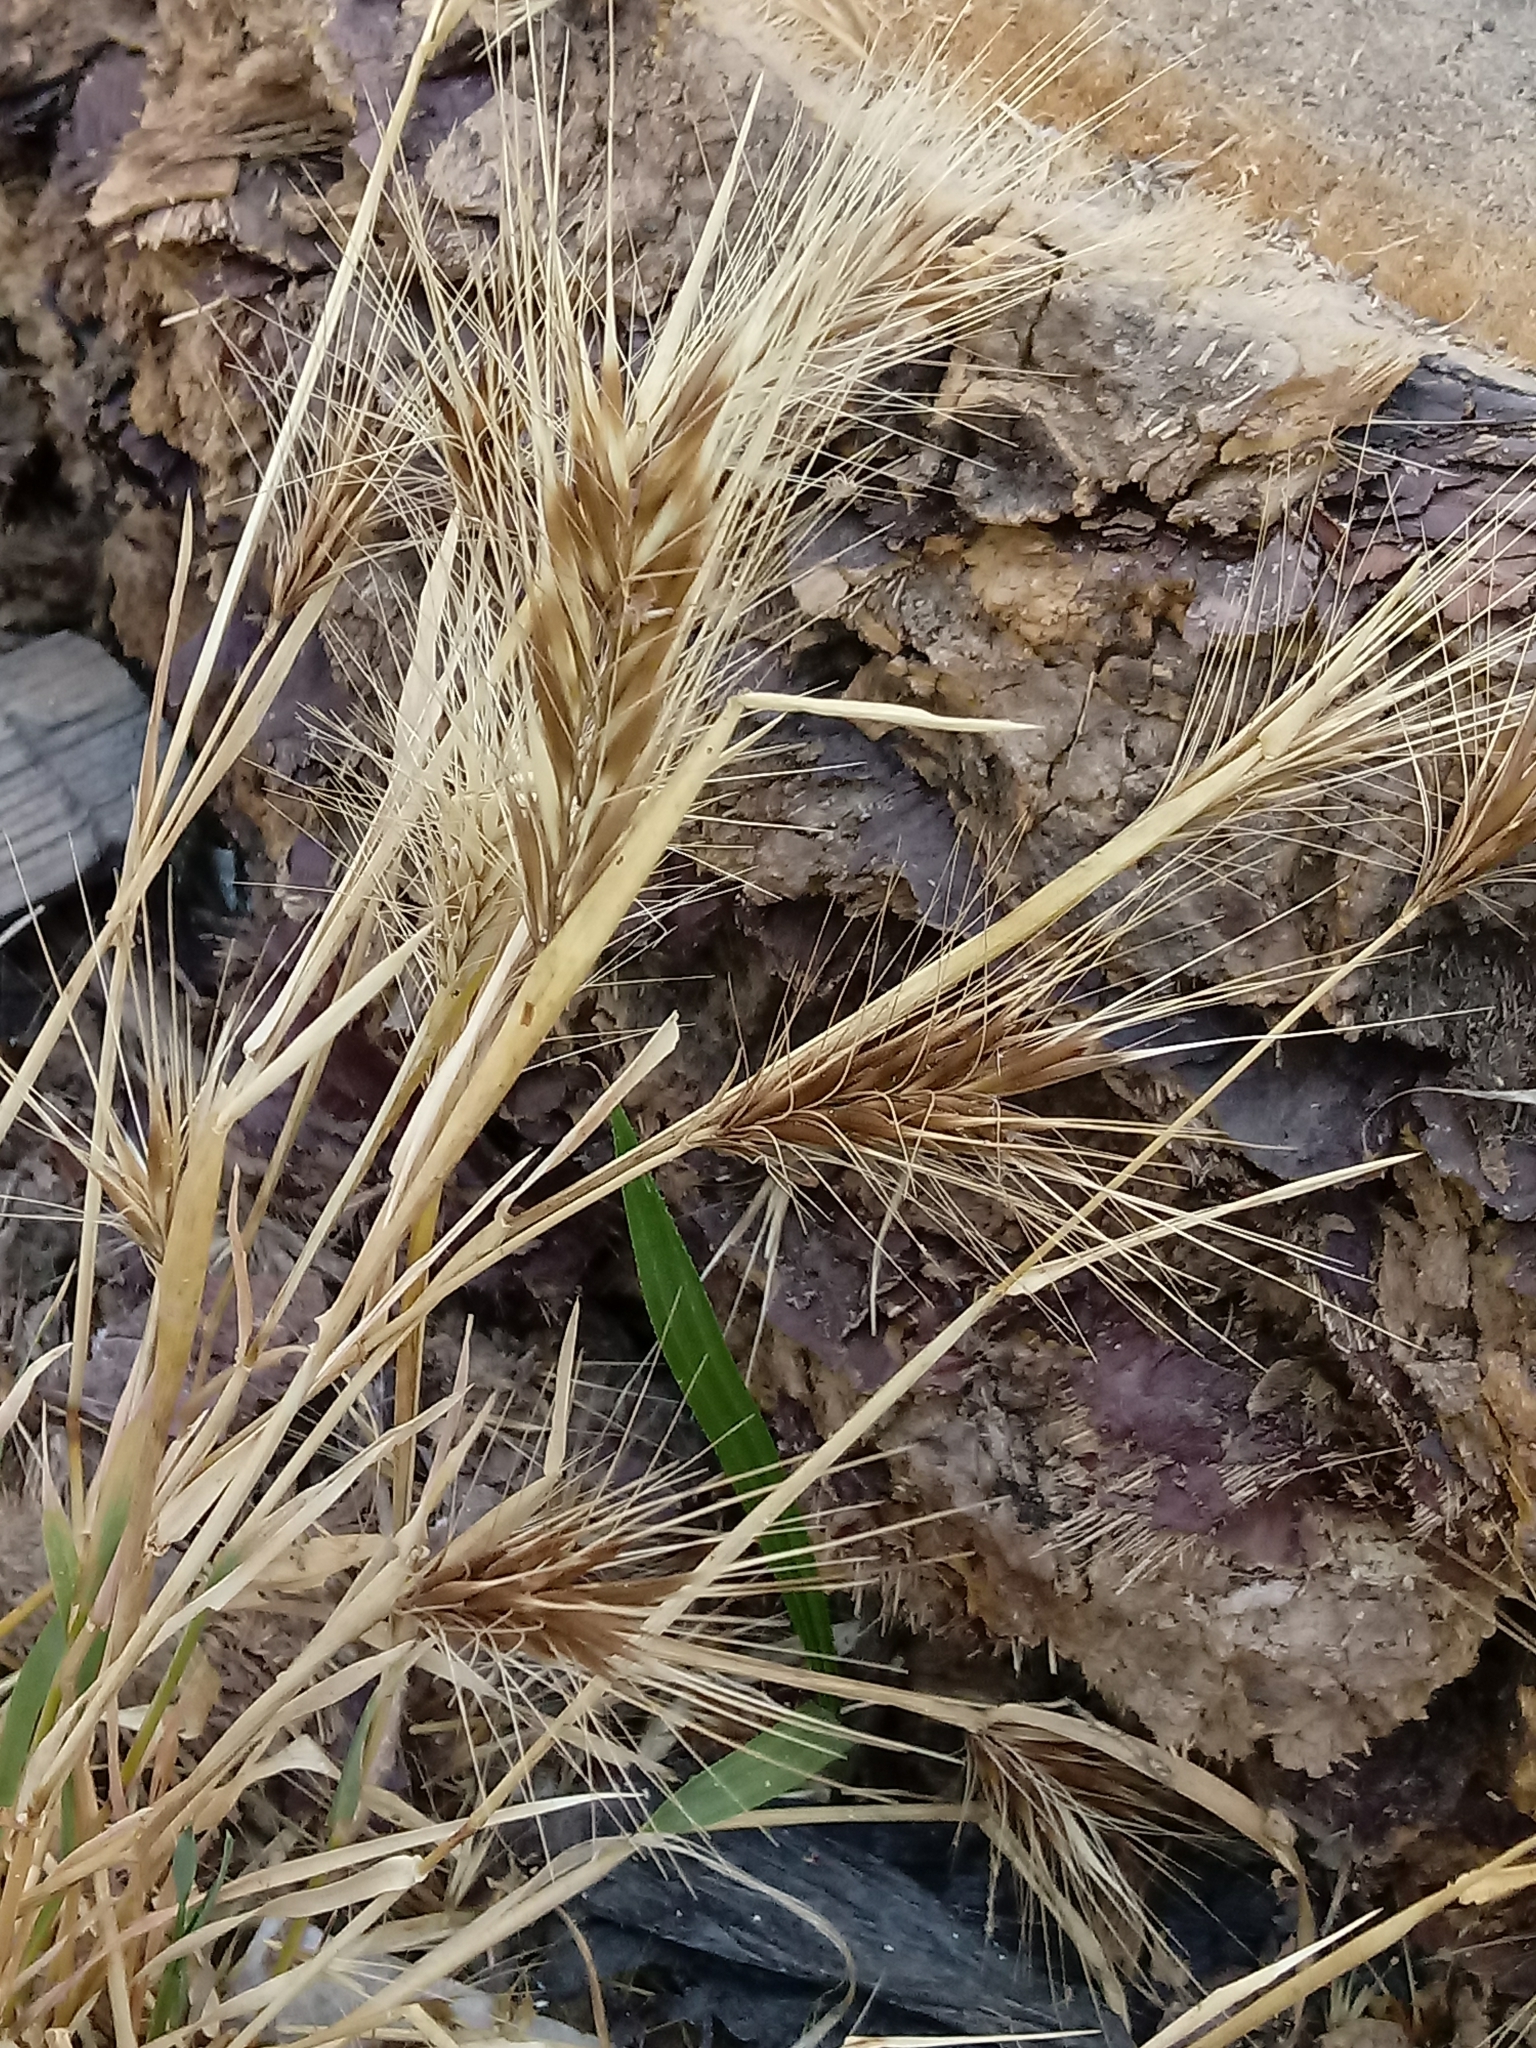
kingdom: Plantae
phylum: Tracheophyta
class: Liliopsida
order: Poales
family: Poaceae
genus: Hordeum
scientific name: Hordeum murinum
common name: Wall barley
